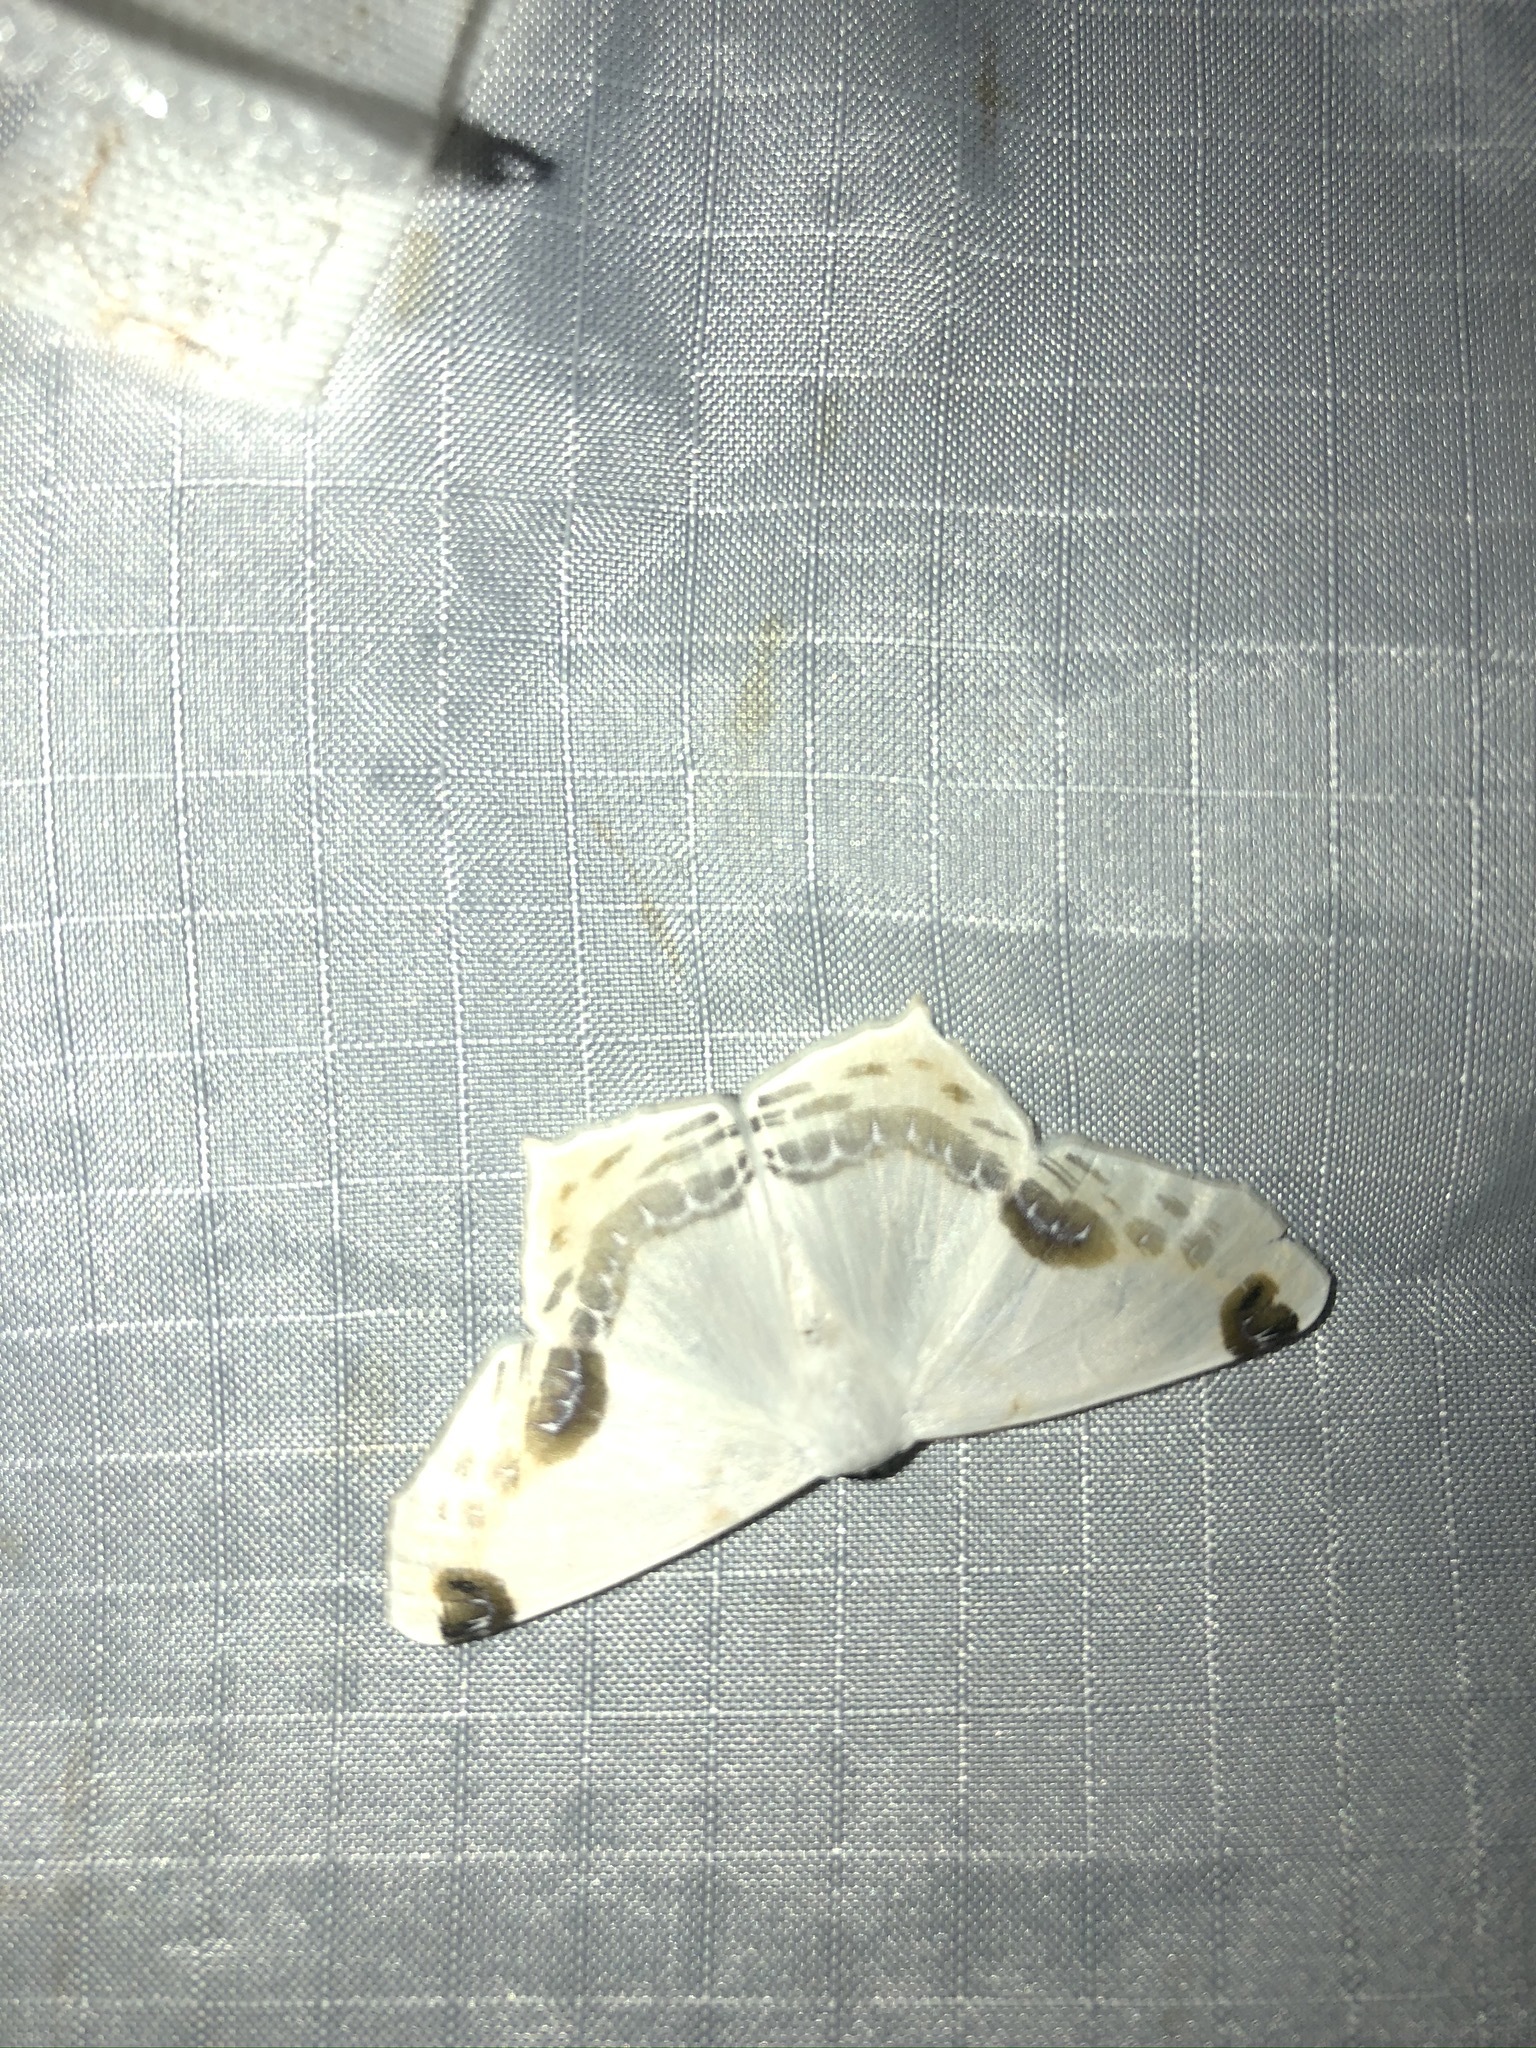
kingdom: Animalia
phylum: Arthropoda
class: Insecta
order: Lepidoptera
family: Geometridae
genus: Sericoptera
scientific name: Sericoptera mahometaria
